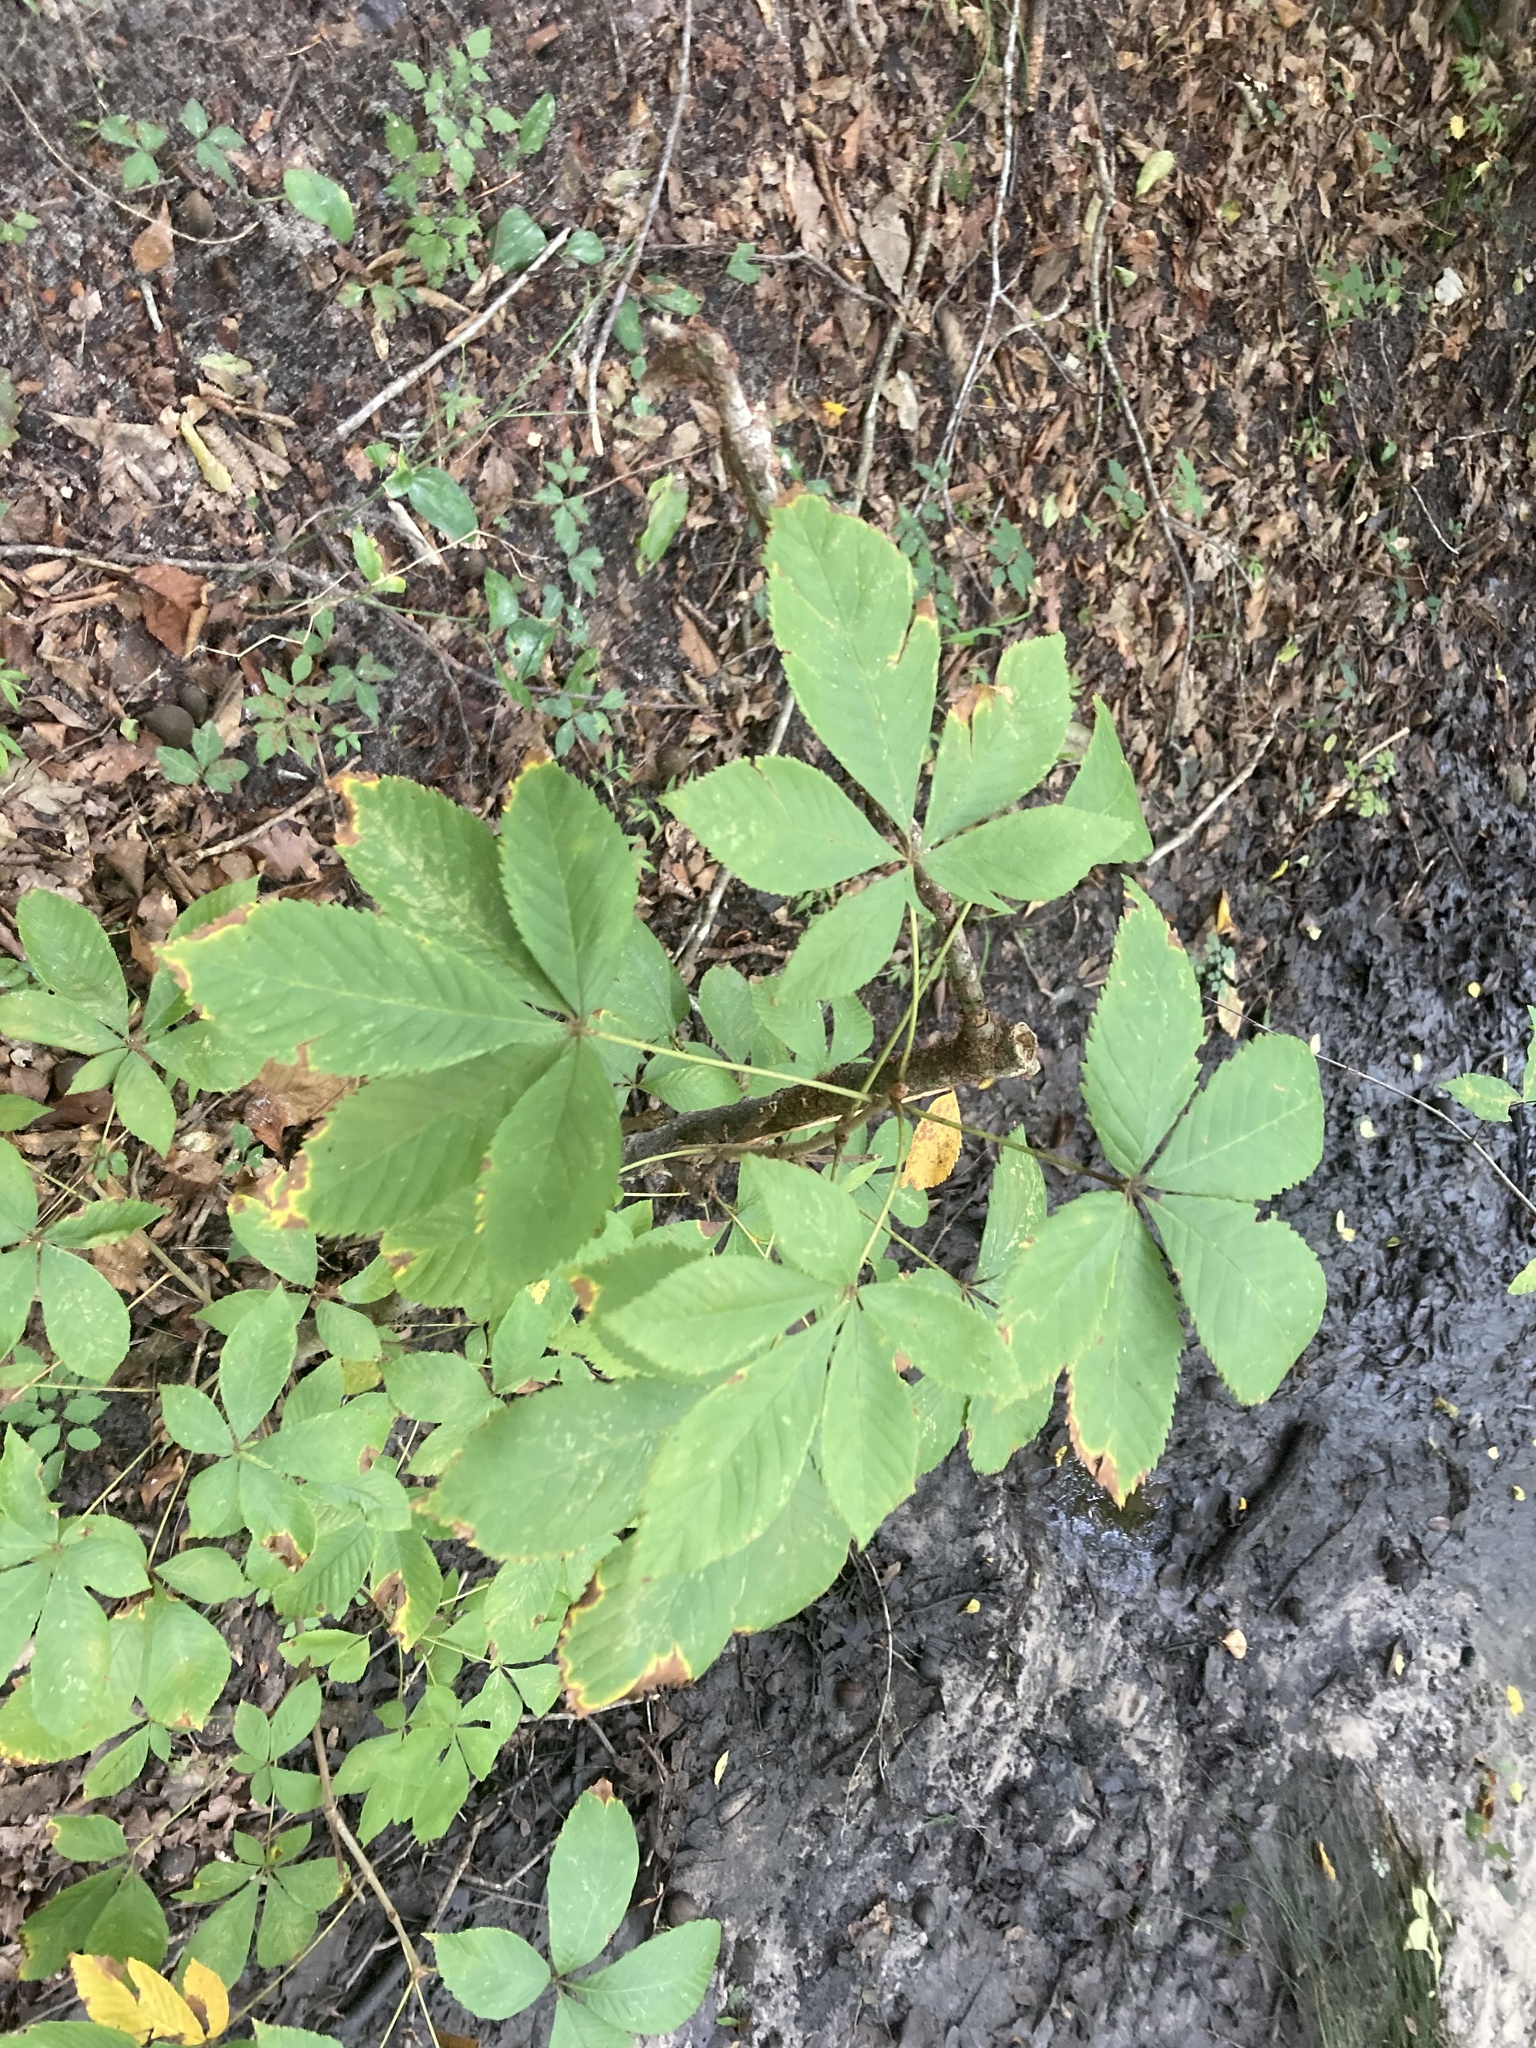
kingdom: Plantae
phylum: Tracheophyta
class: Magnoliopsida
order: Sapindales
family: Sapindaceae
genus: Aesculus
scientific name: Aesculus pavia
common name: Red buckeye
